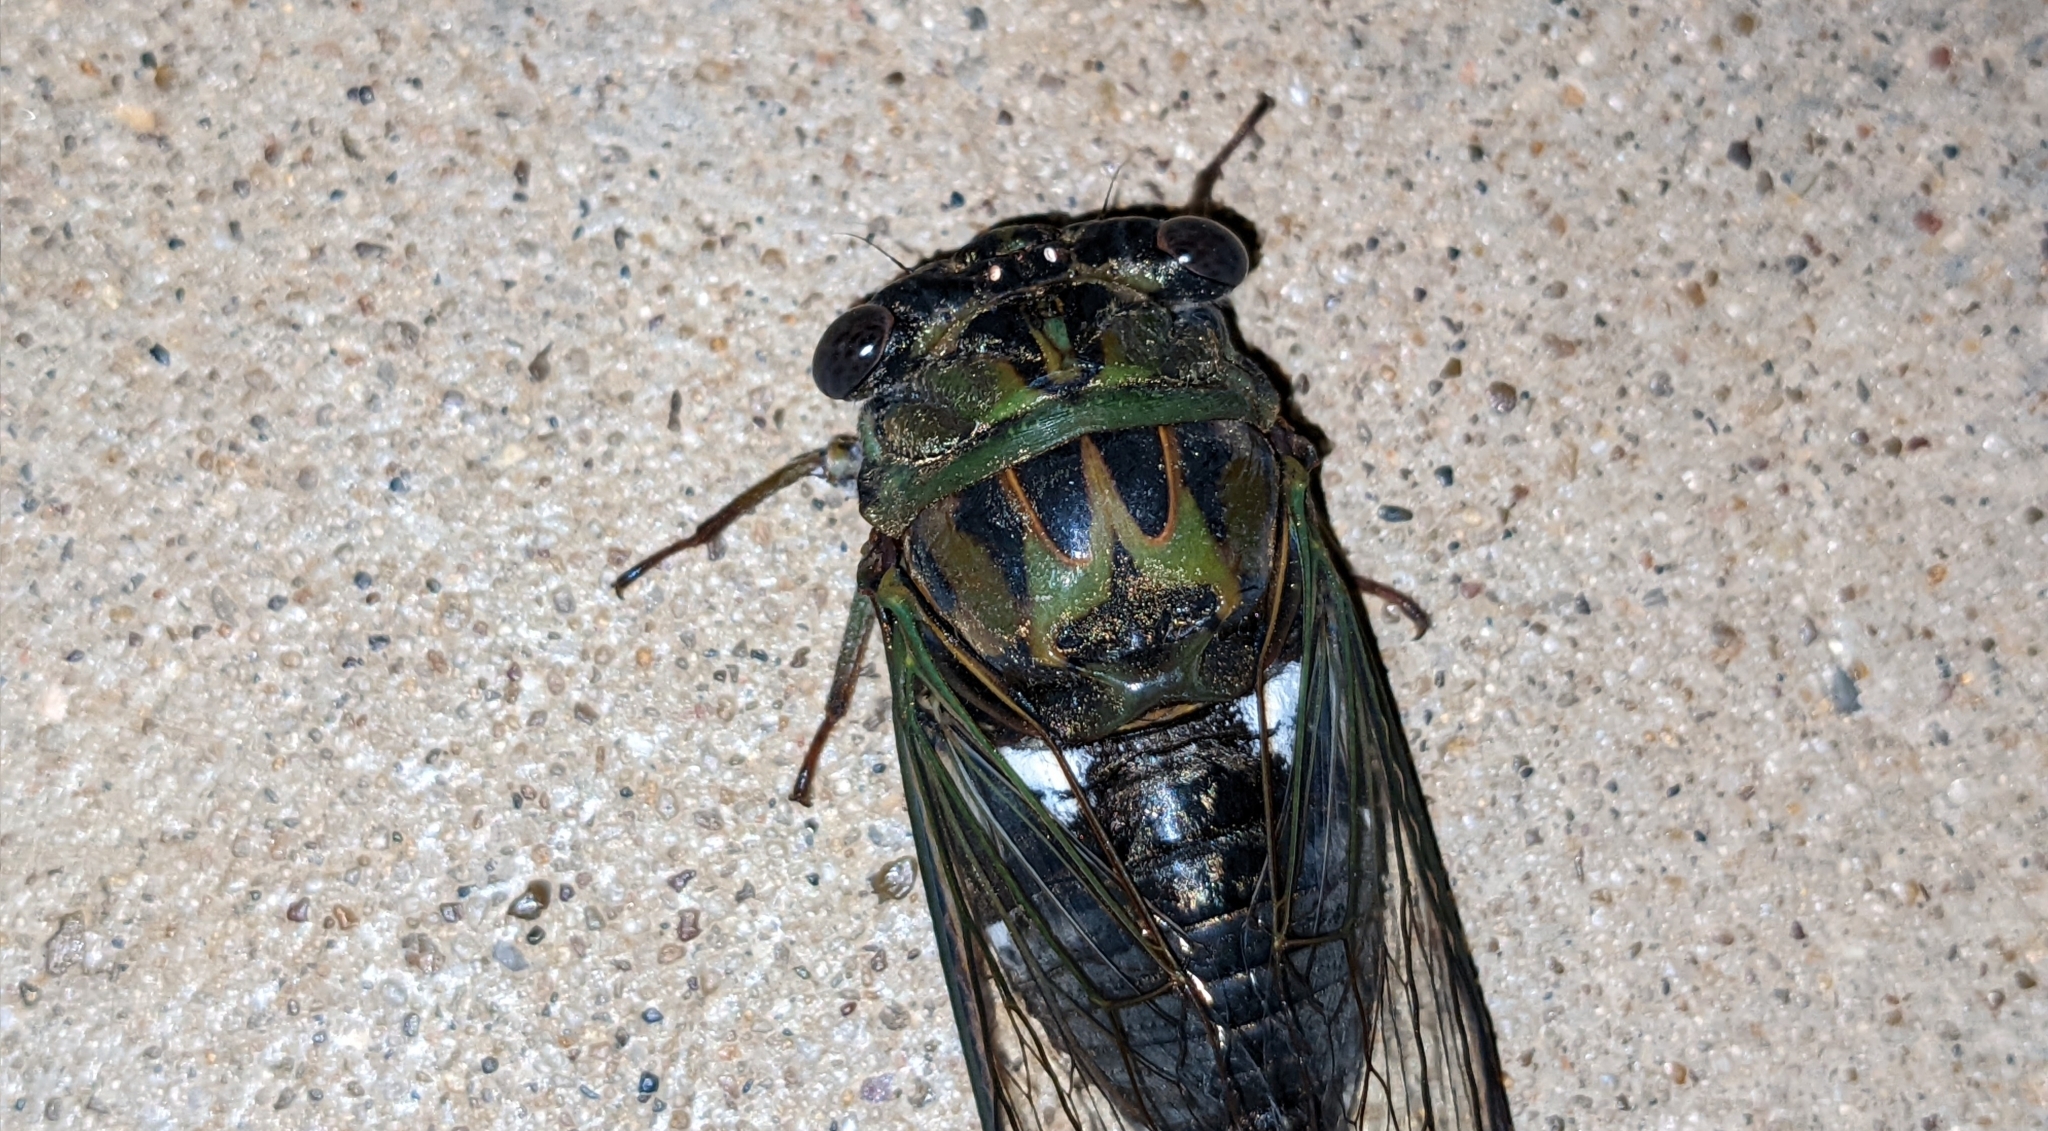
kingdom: Animalia
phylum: Arthropoda
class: Insecta
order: Hemiptera
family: Cicadidae
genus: Neotibicen
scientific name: Neotibicen pruinosus
